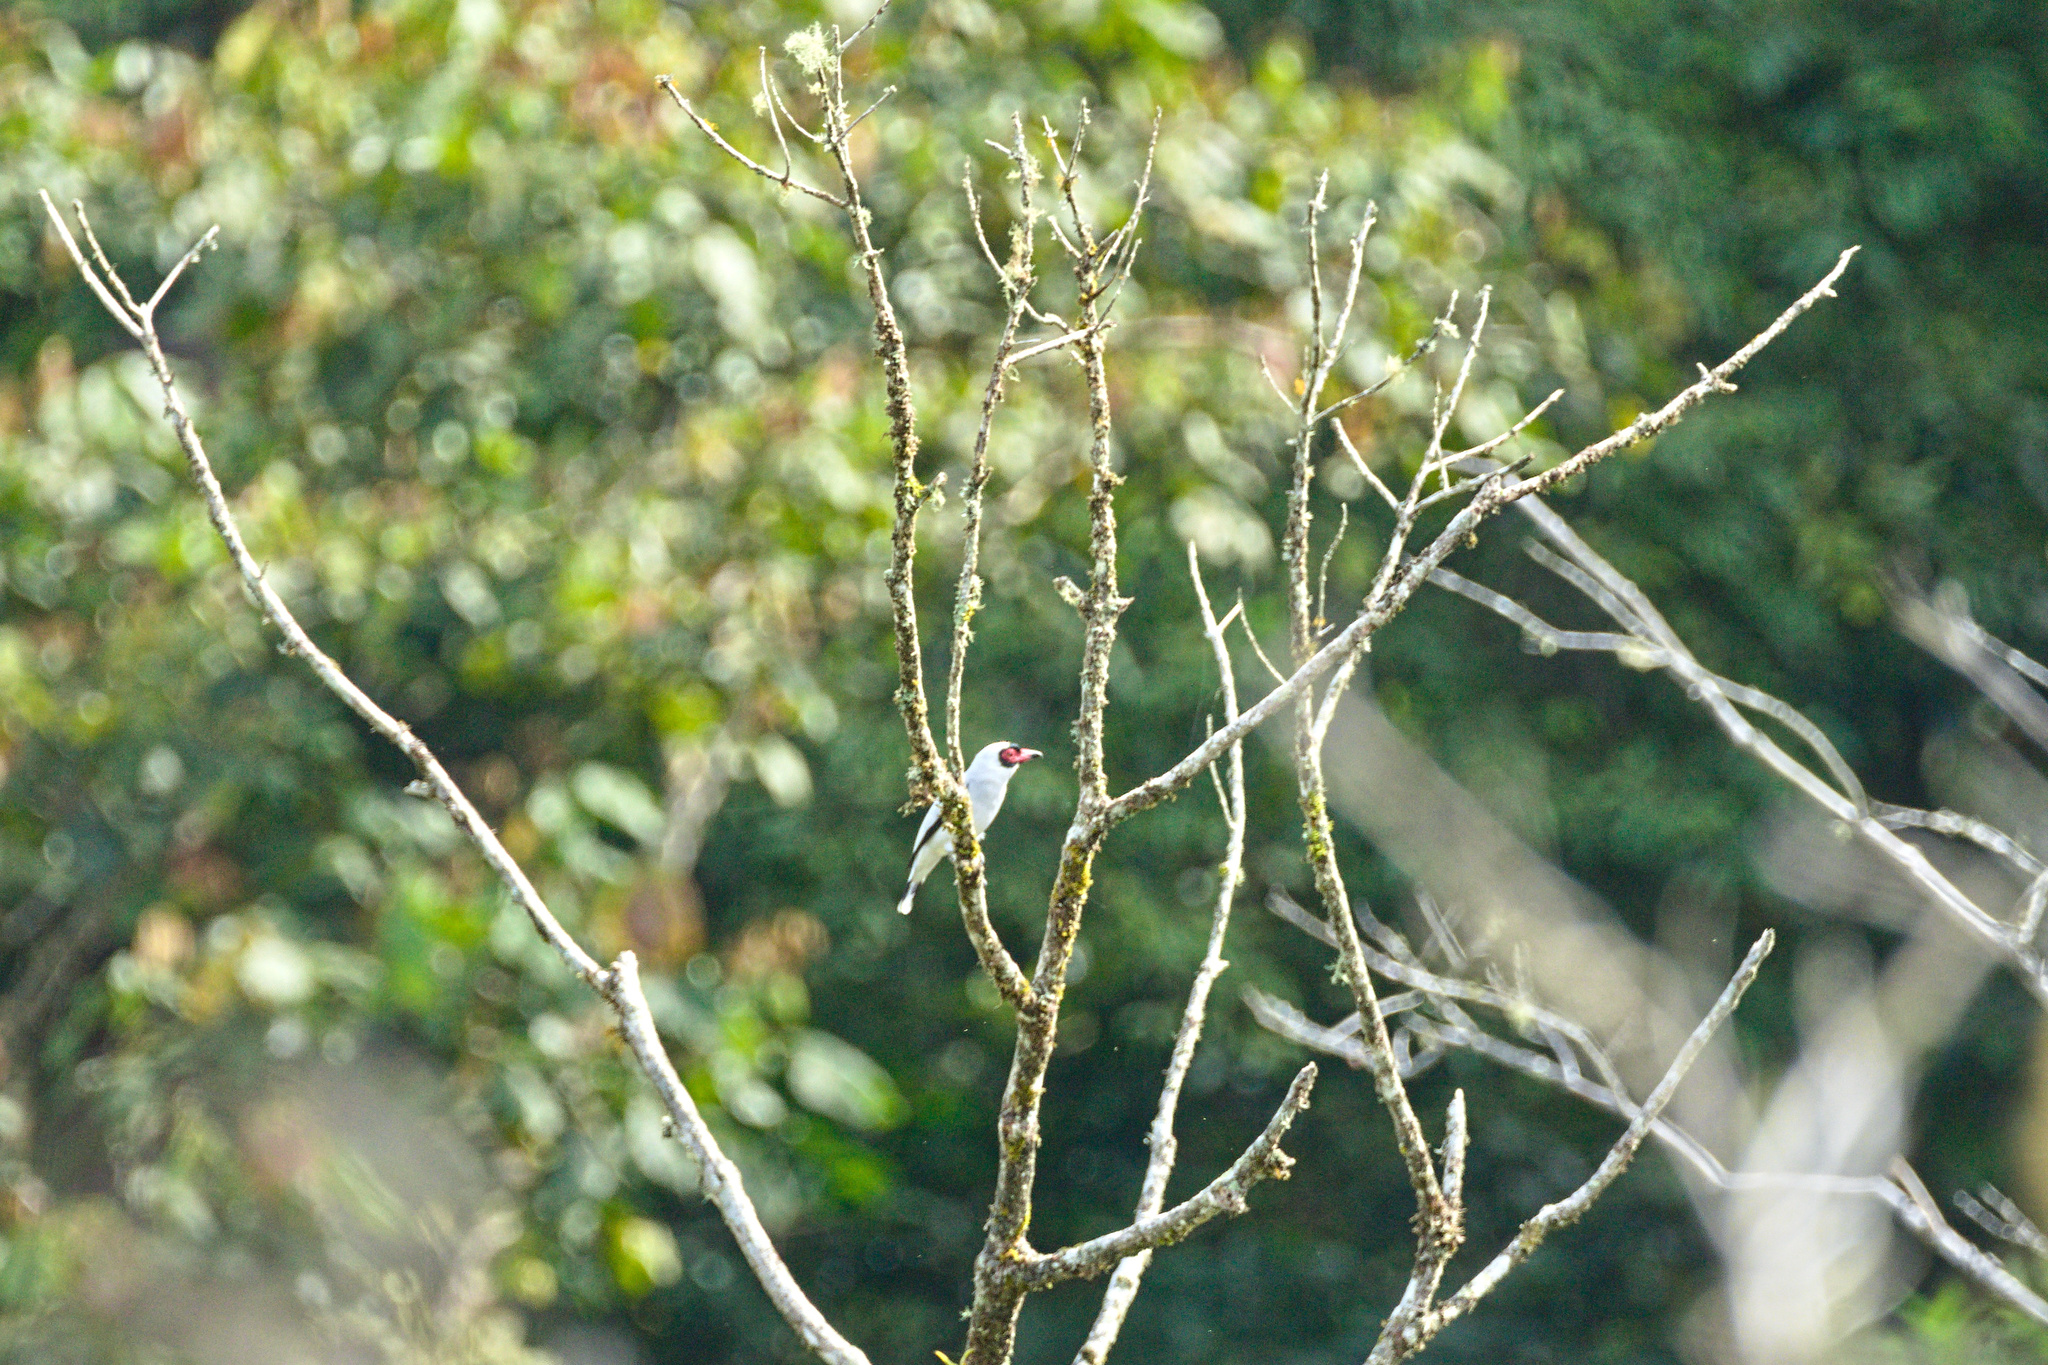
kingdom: Animalia
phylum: Chordata
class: Aves
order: Passeriformes
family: Cotingidae
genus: Tityra
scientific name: Tityra semifasciata
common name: Masked tityra
